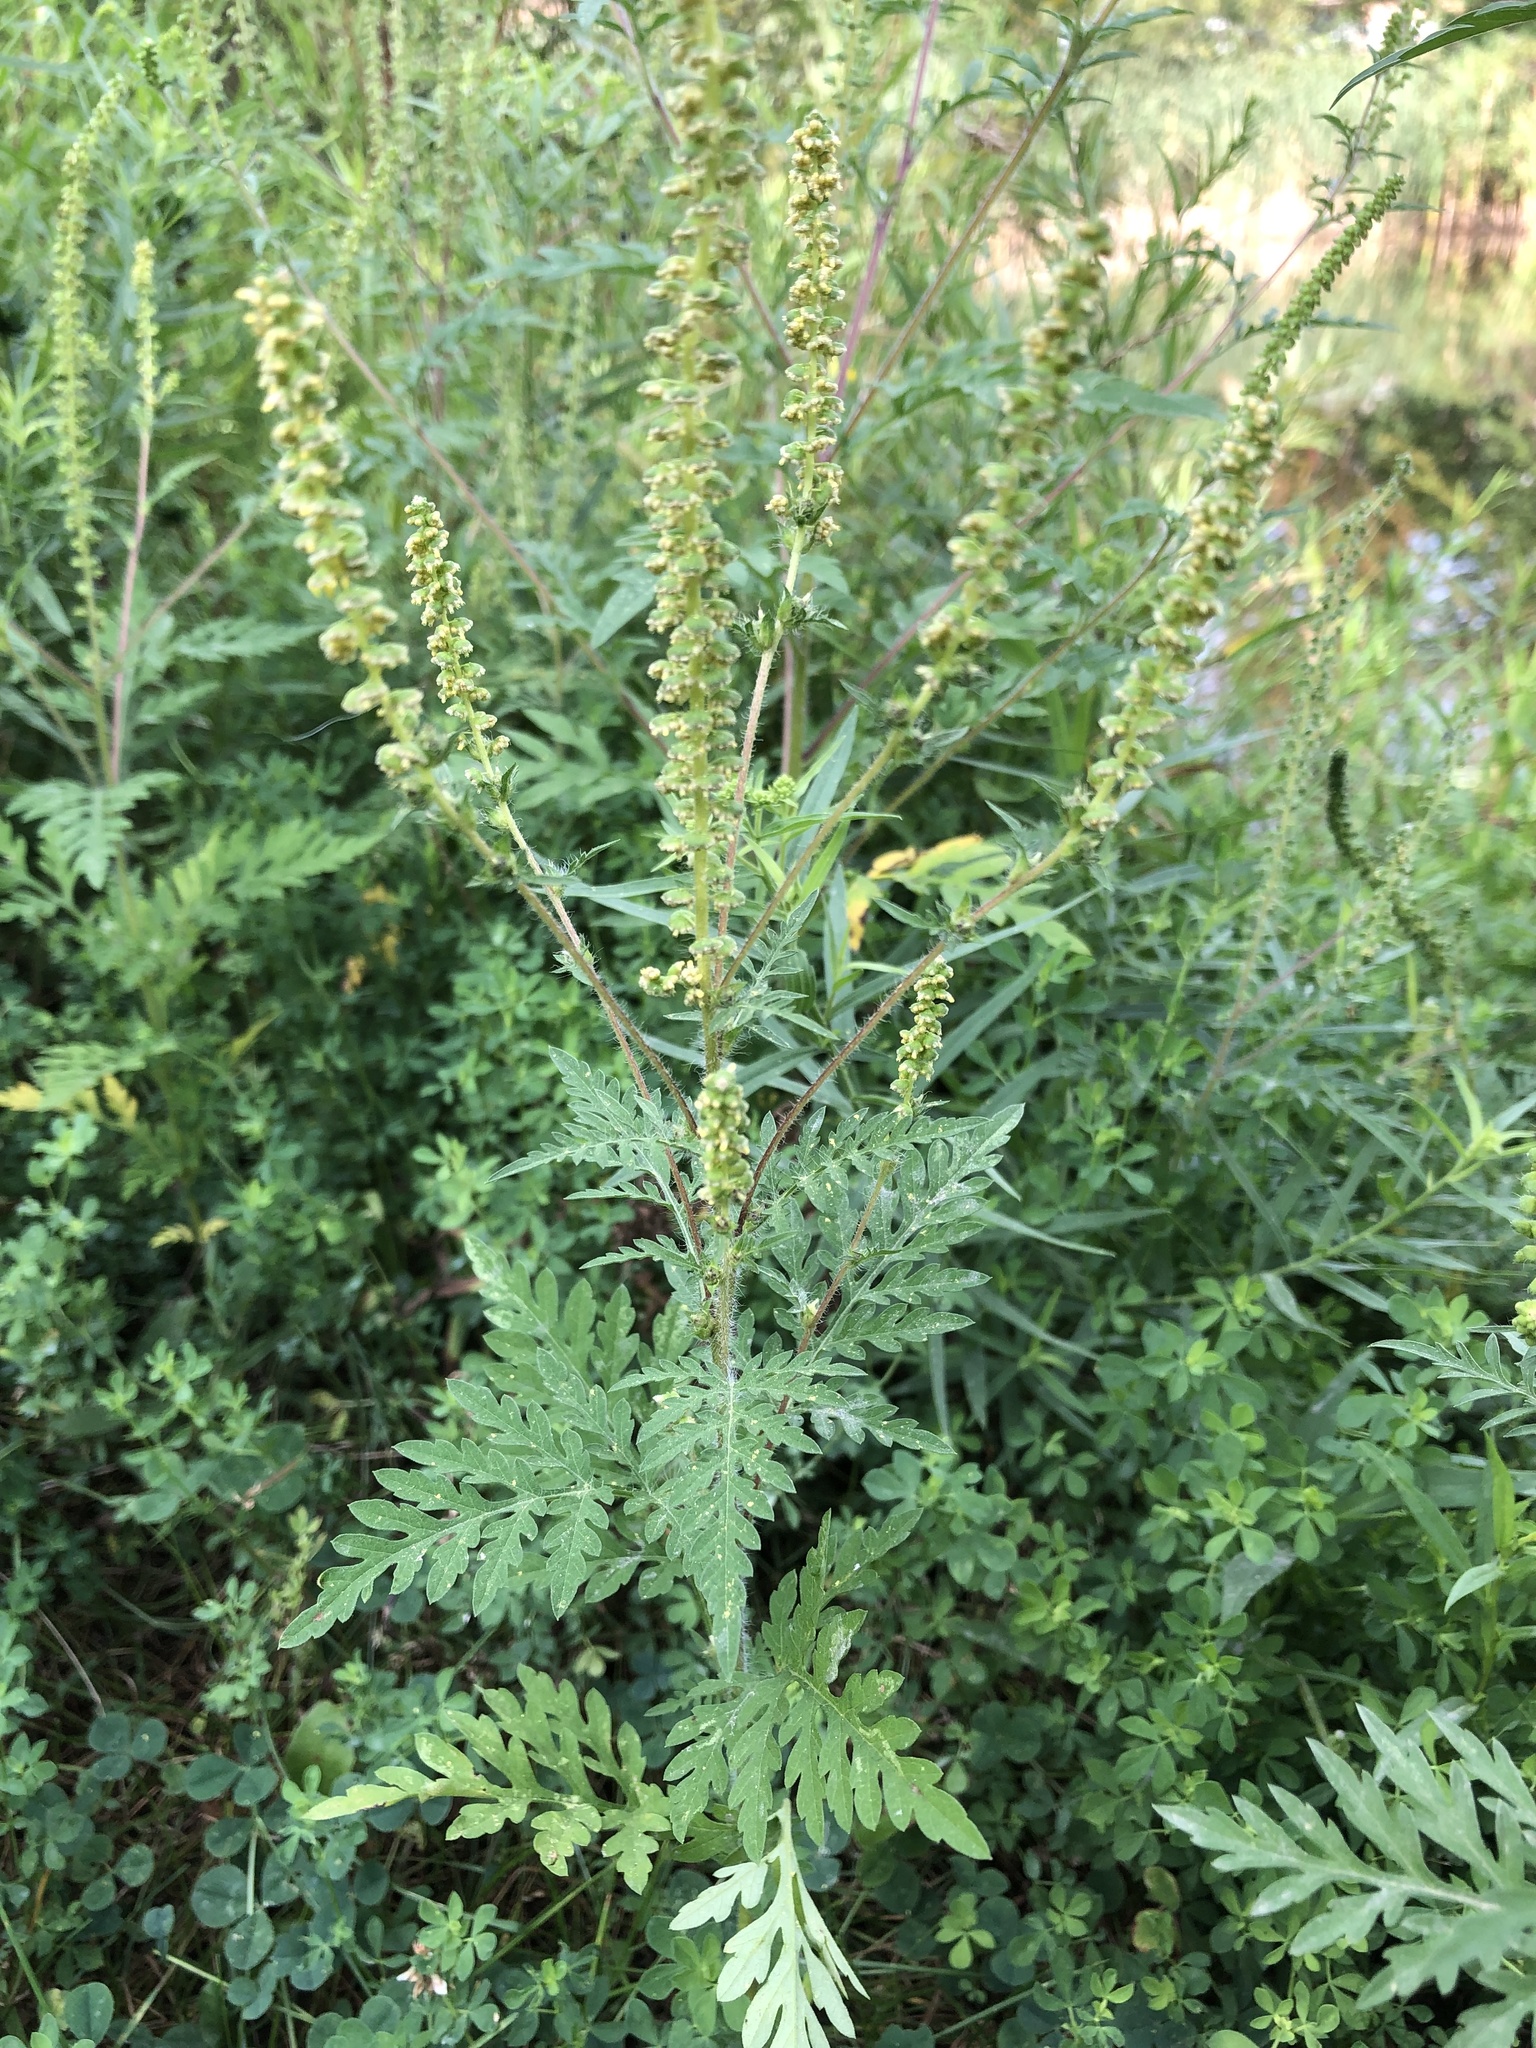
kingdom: Plantae
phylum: Tracheophyta
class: Magnoliopsida
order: Asterales
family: Asteraceae
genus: Ambrosia
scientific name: Ambrosia artemisiifolia
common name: Annual ragweed
